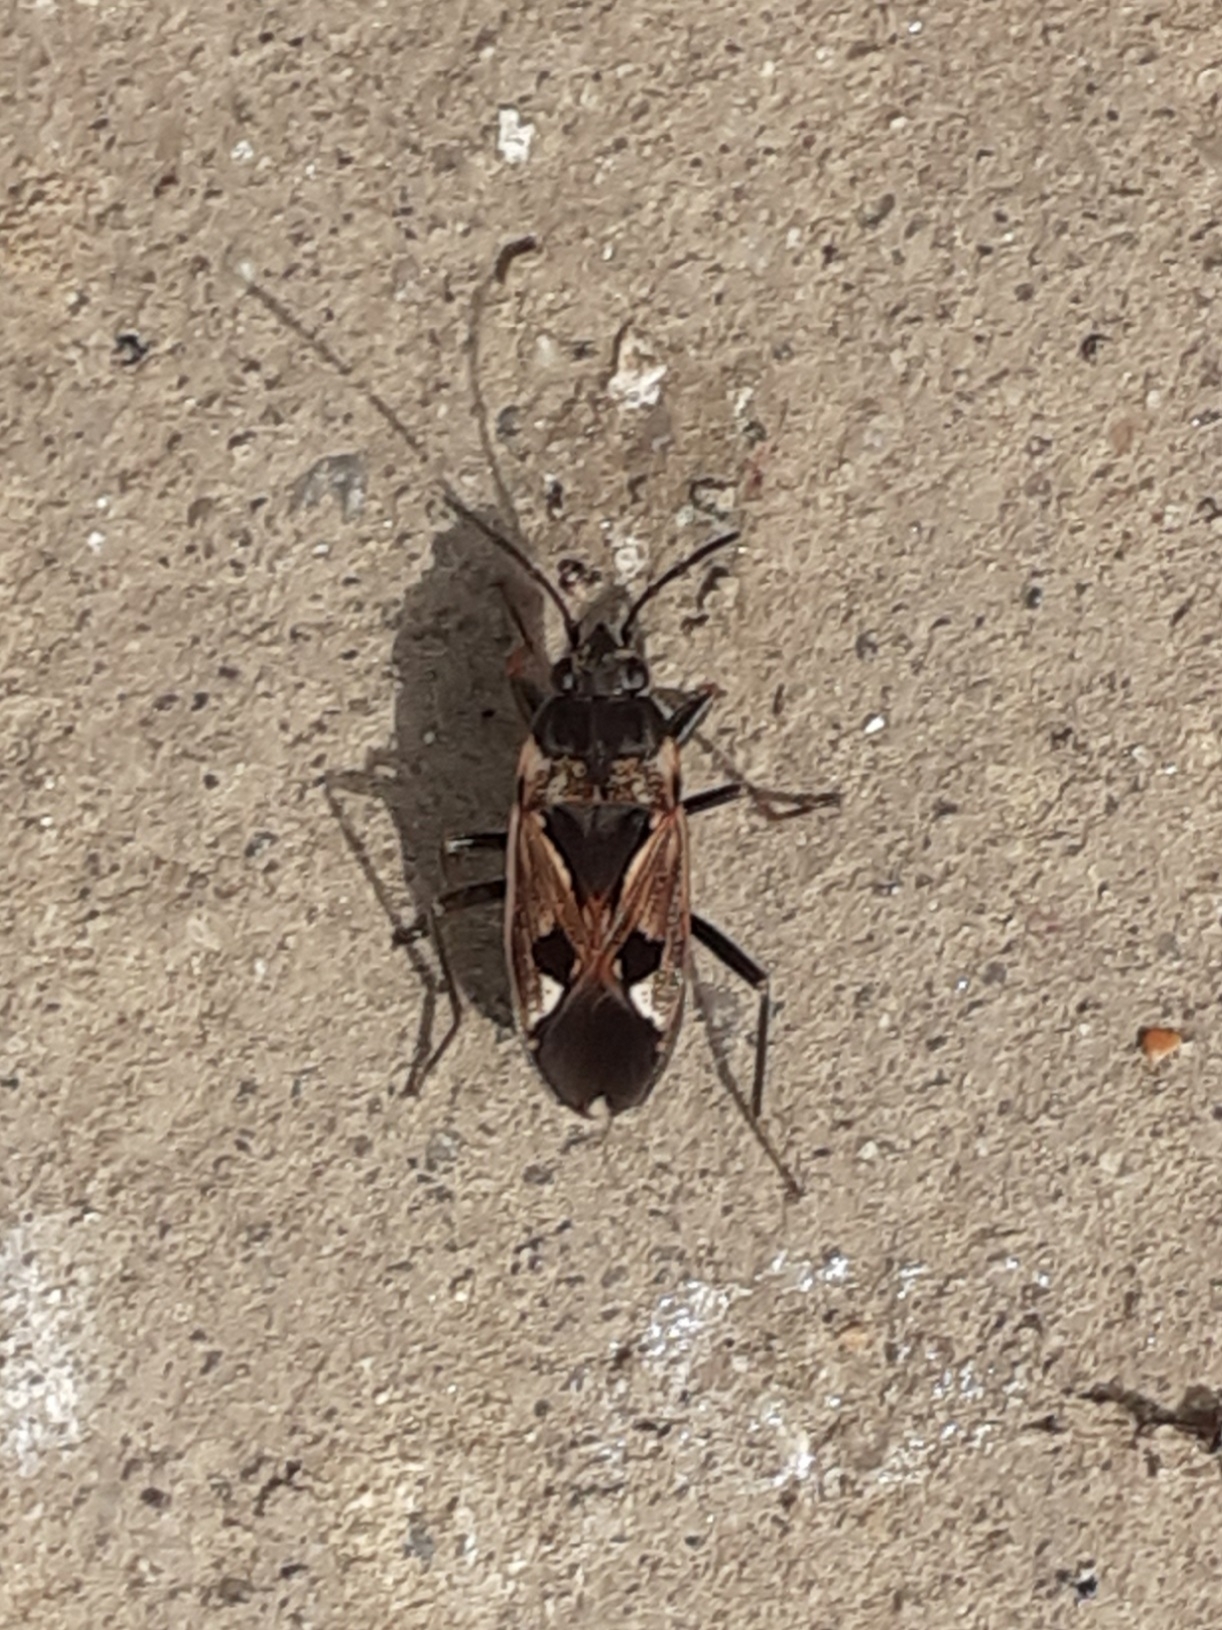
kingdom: Animalia
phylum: Arthropoda
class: Insecta
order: Hemiptera
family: Rhyparochromidae
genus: Rhyparochromus
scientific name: Rhyparochromus vulgaris
